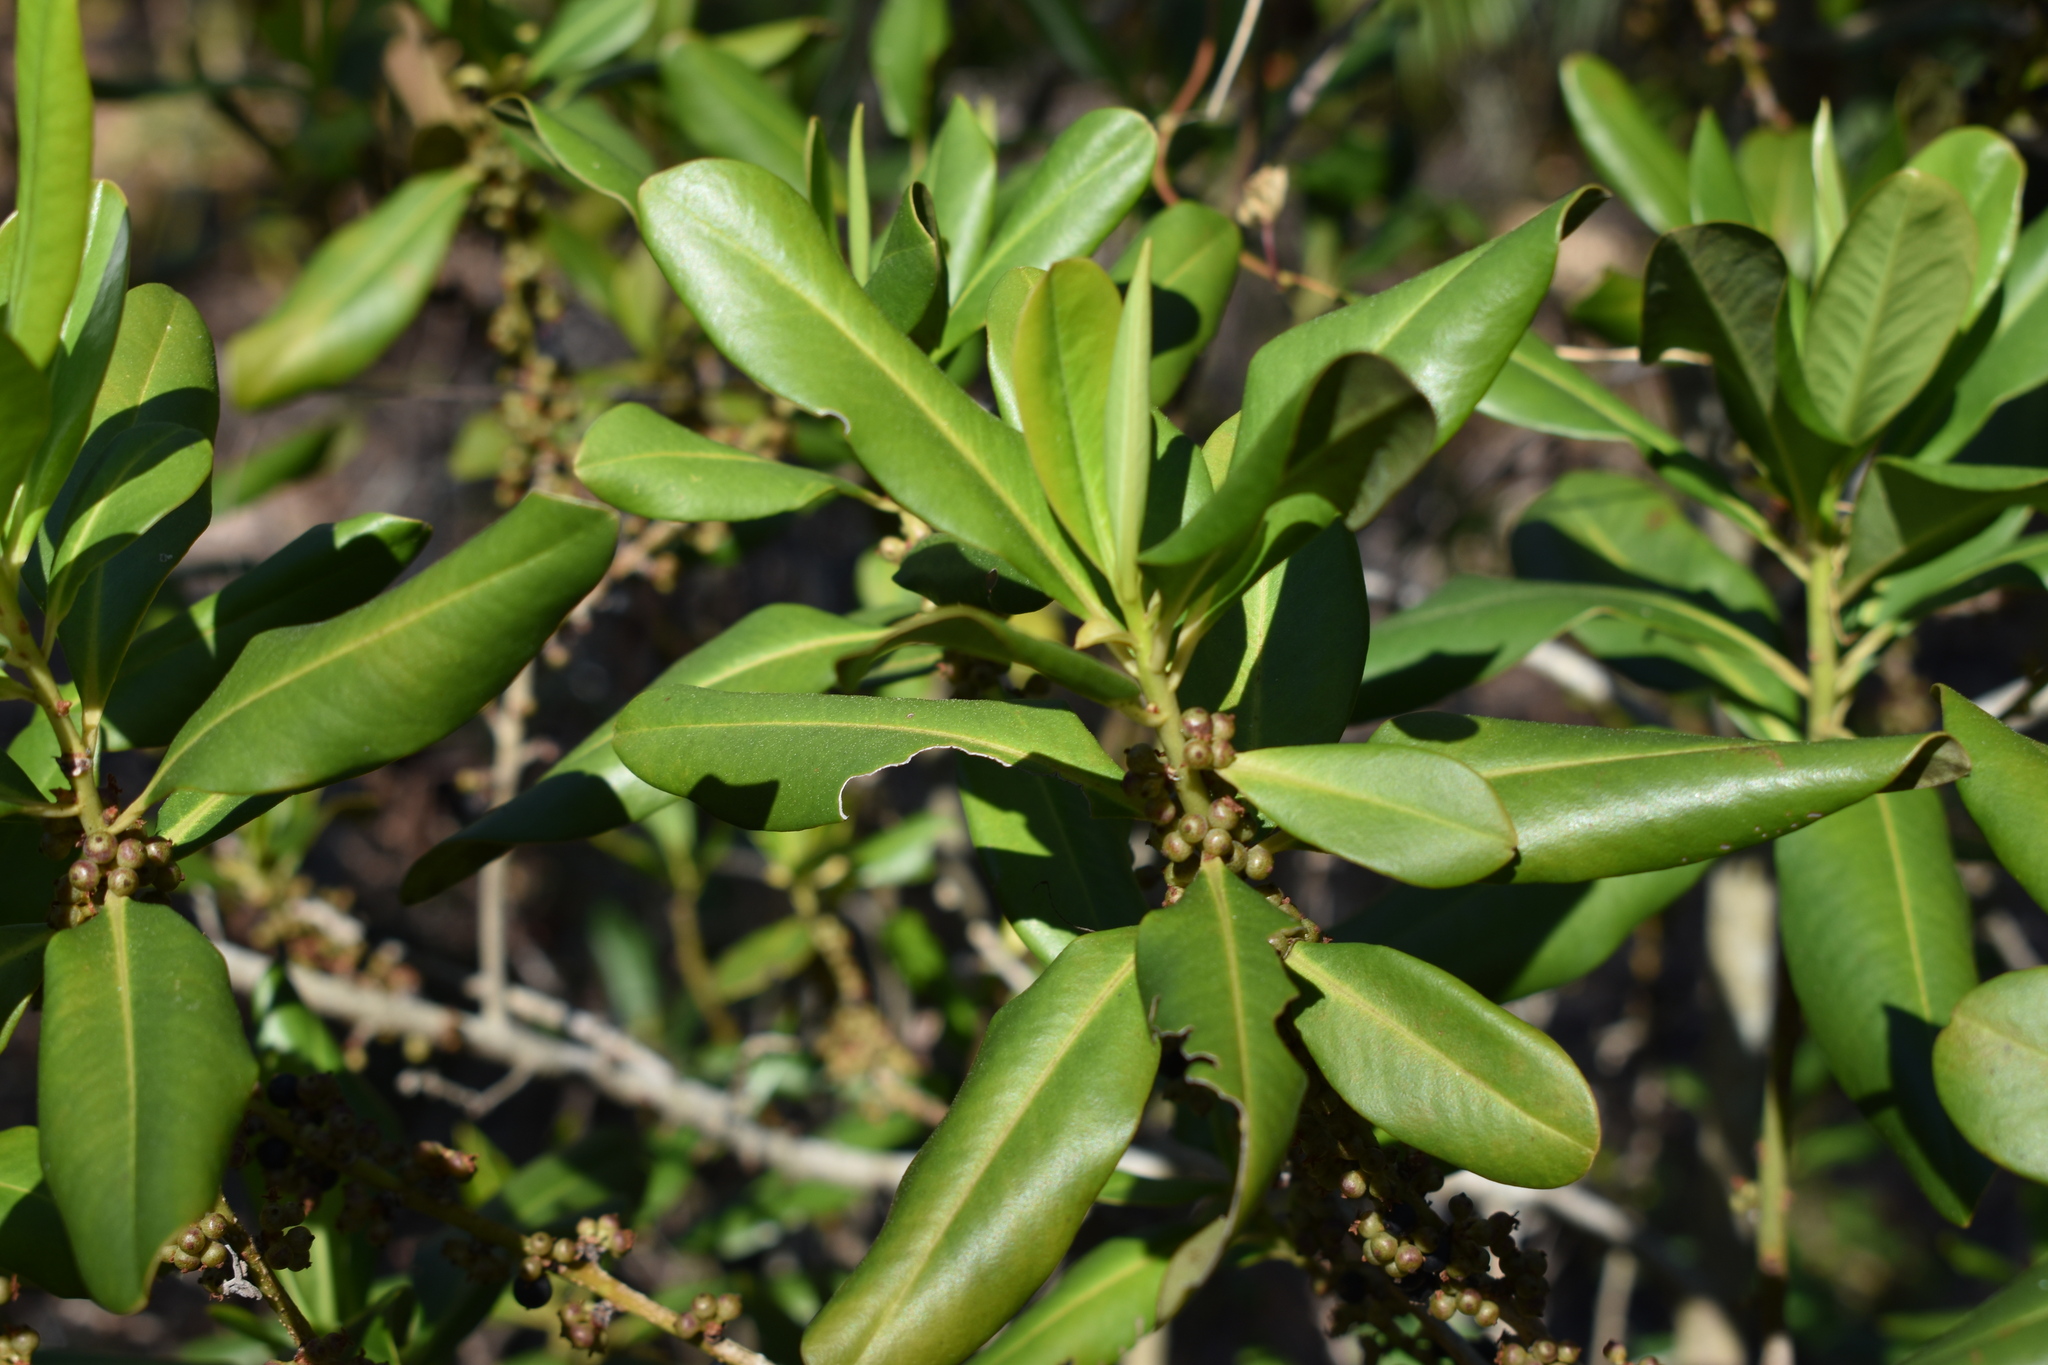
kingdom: Plantae
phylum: Tracheophyta
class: Magnoliopsida
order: Ericales
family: Primulaceae
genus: Myrsine
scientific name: Myrsine floridana
